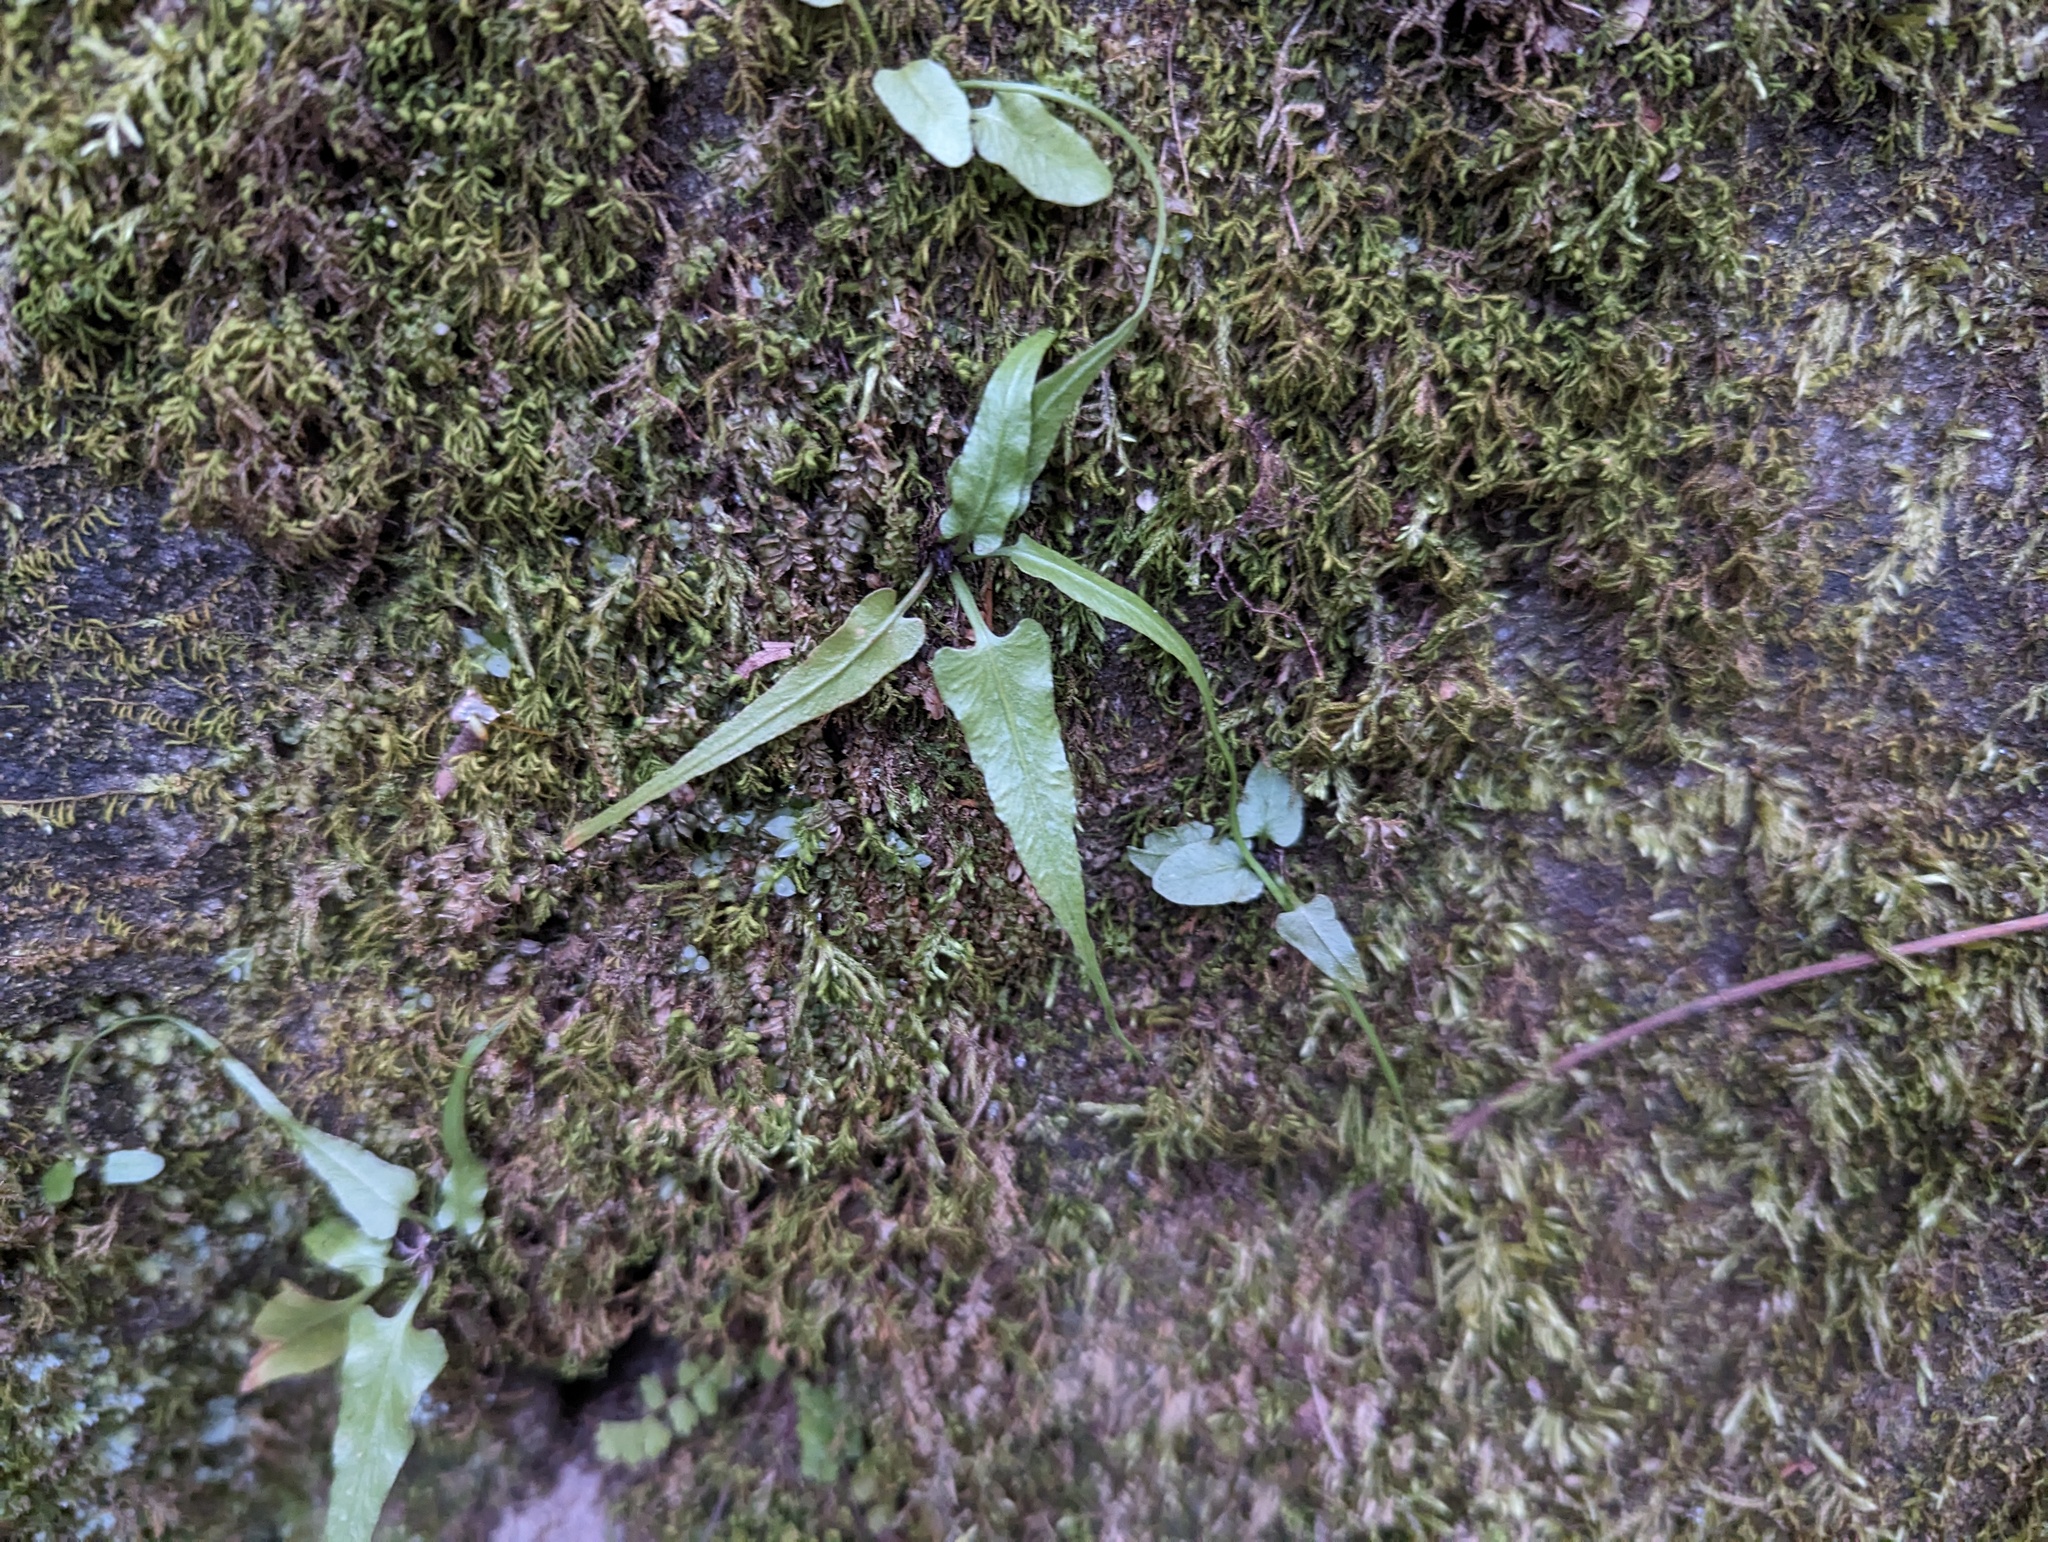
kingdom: Plantae
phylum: Tracheophyta
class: Polypodiopsida
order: Polypodiales
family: Aspleniaceae
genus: Asplenium
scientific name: Asplenium rhizophyllum
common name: Walking fern
